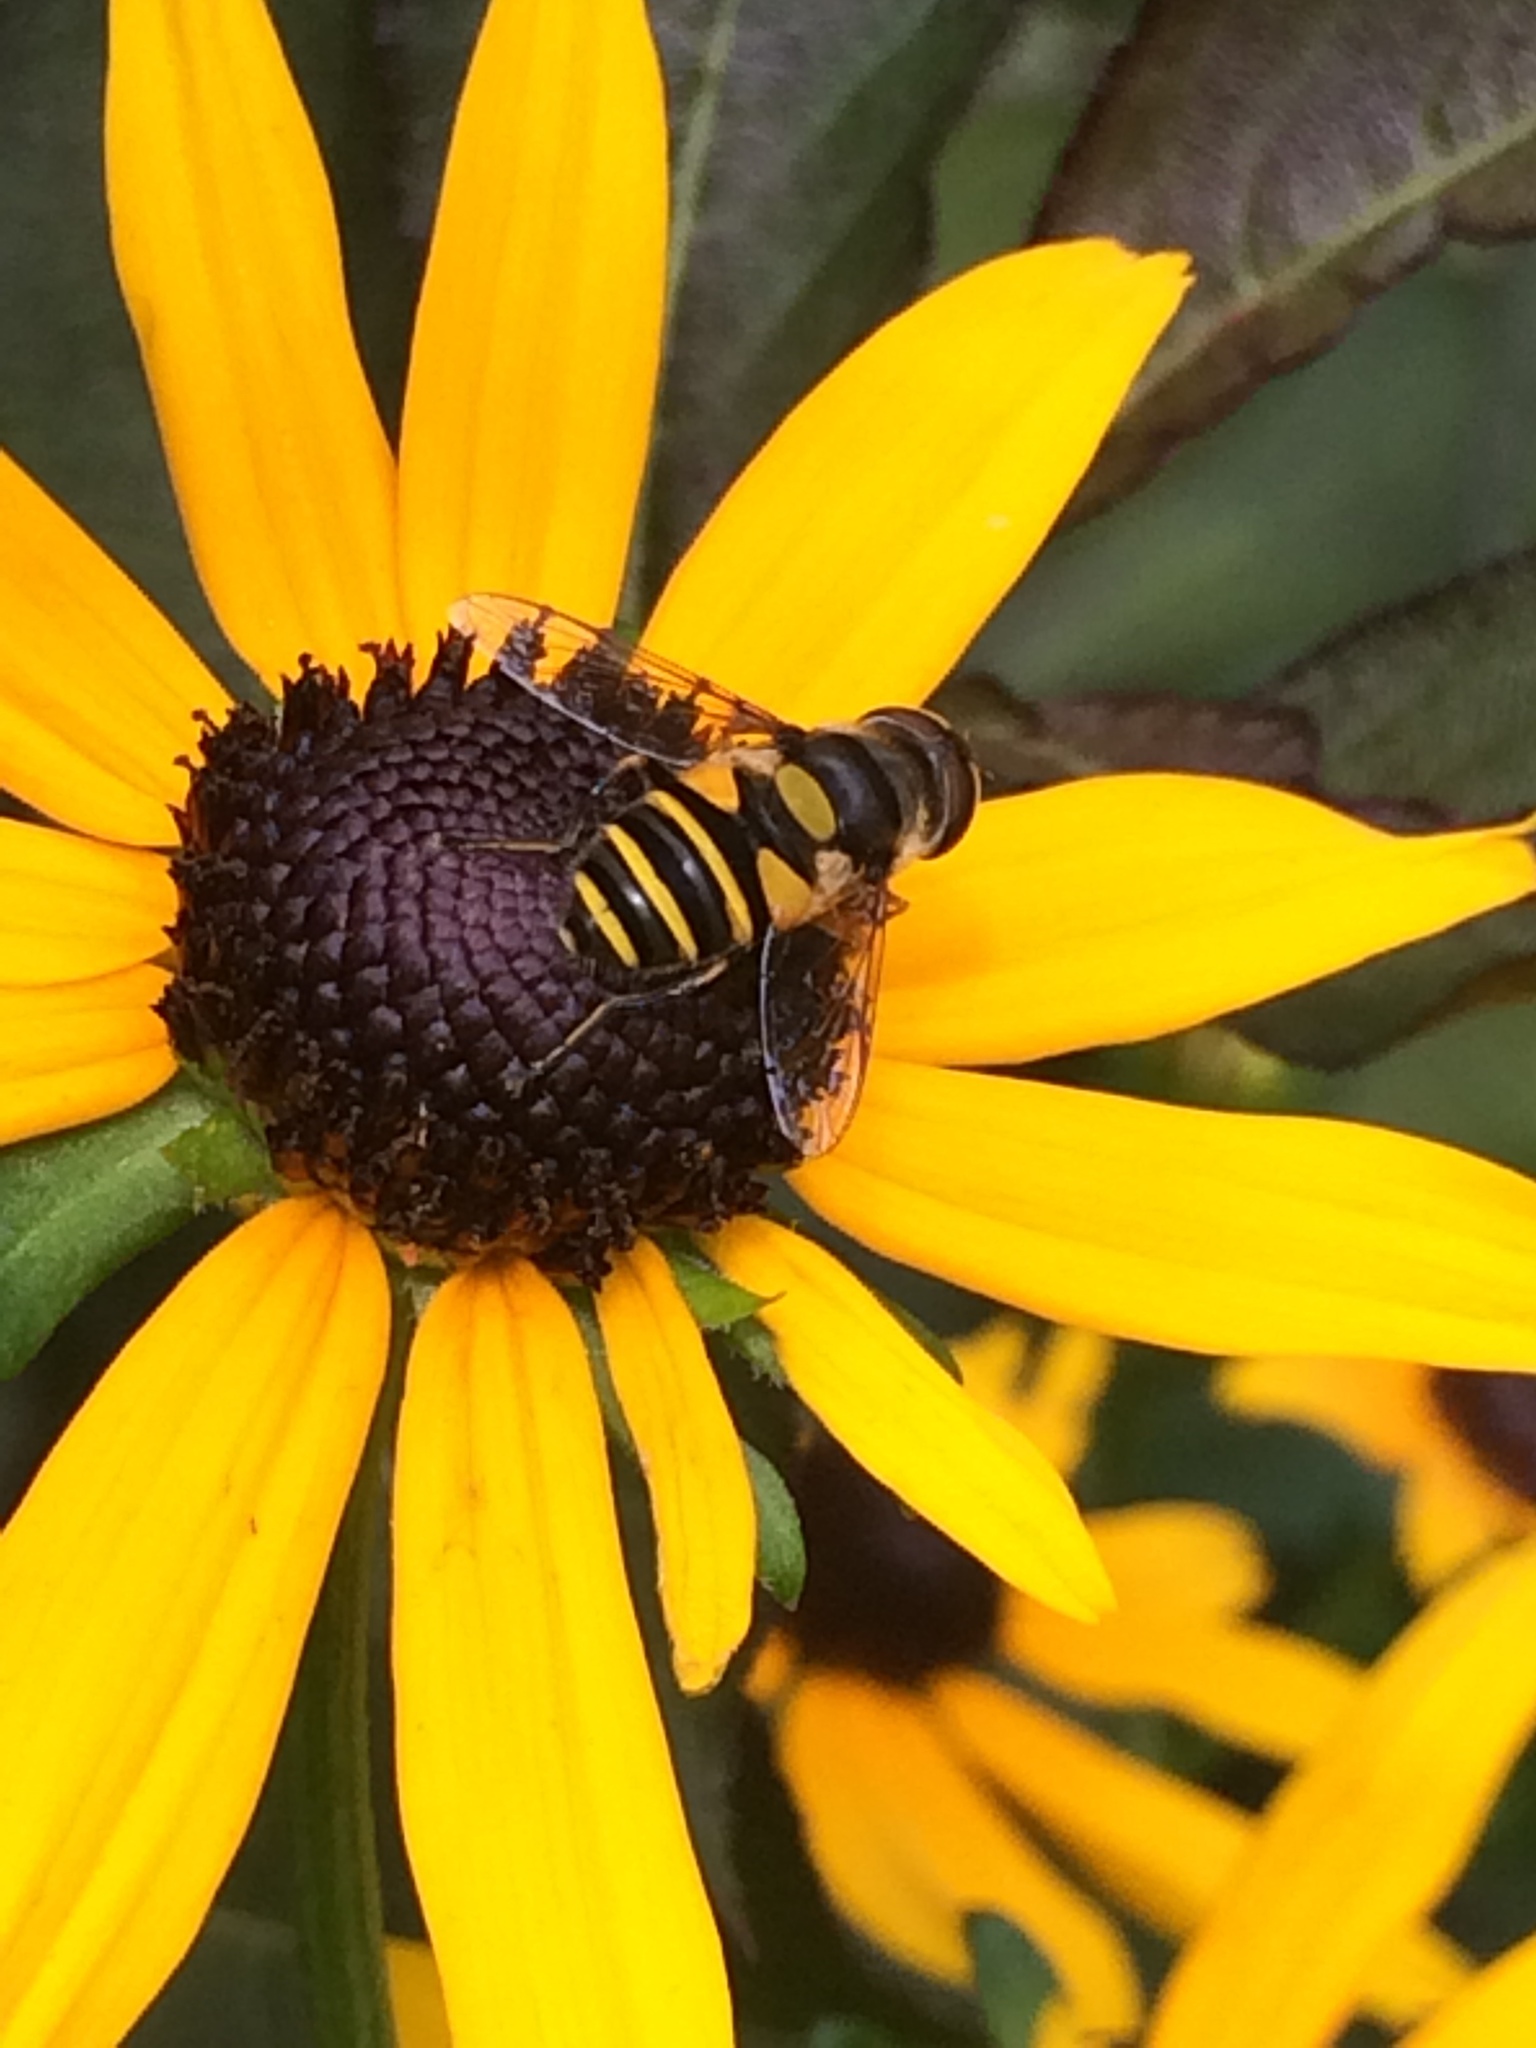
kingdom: Animalia
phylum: Arthropoda
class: Insecta
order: Diptera
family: Syrphidae
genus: Eristalis
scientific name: Eristalis transversa
